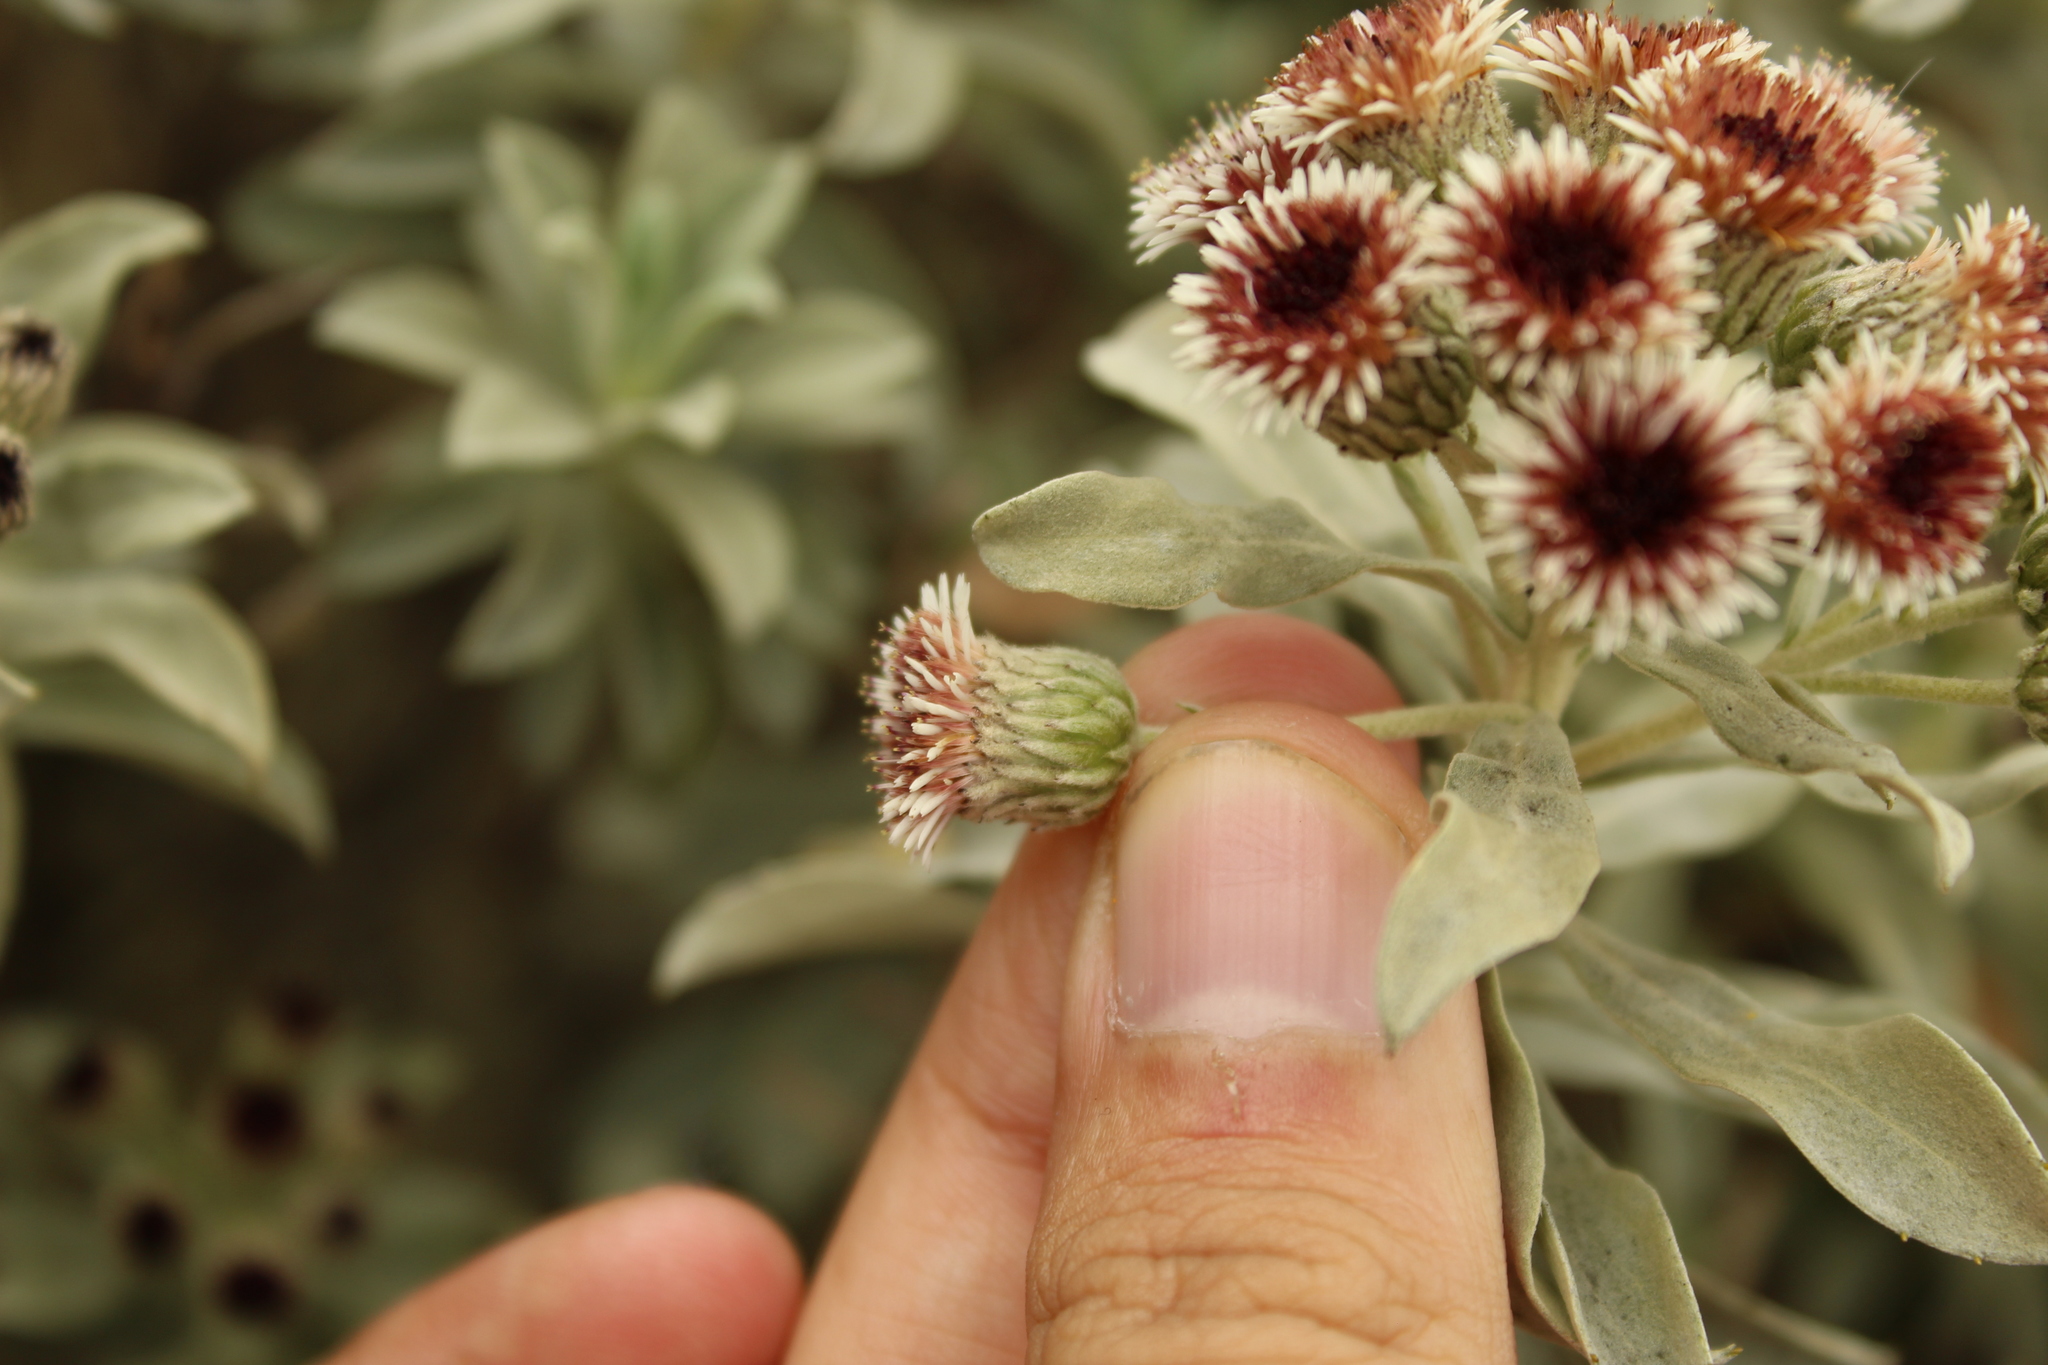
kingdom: Plantae
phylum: Tracheophyta
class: Magnoliopsida
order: Asterales
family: Asteraceae
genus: Linochilus
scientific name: Linochilus alveolatus
